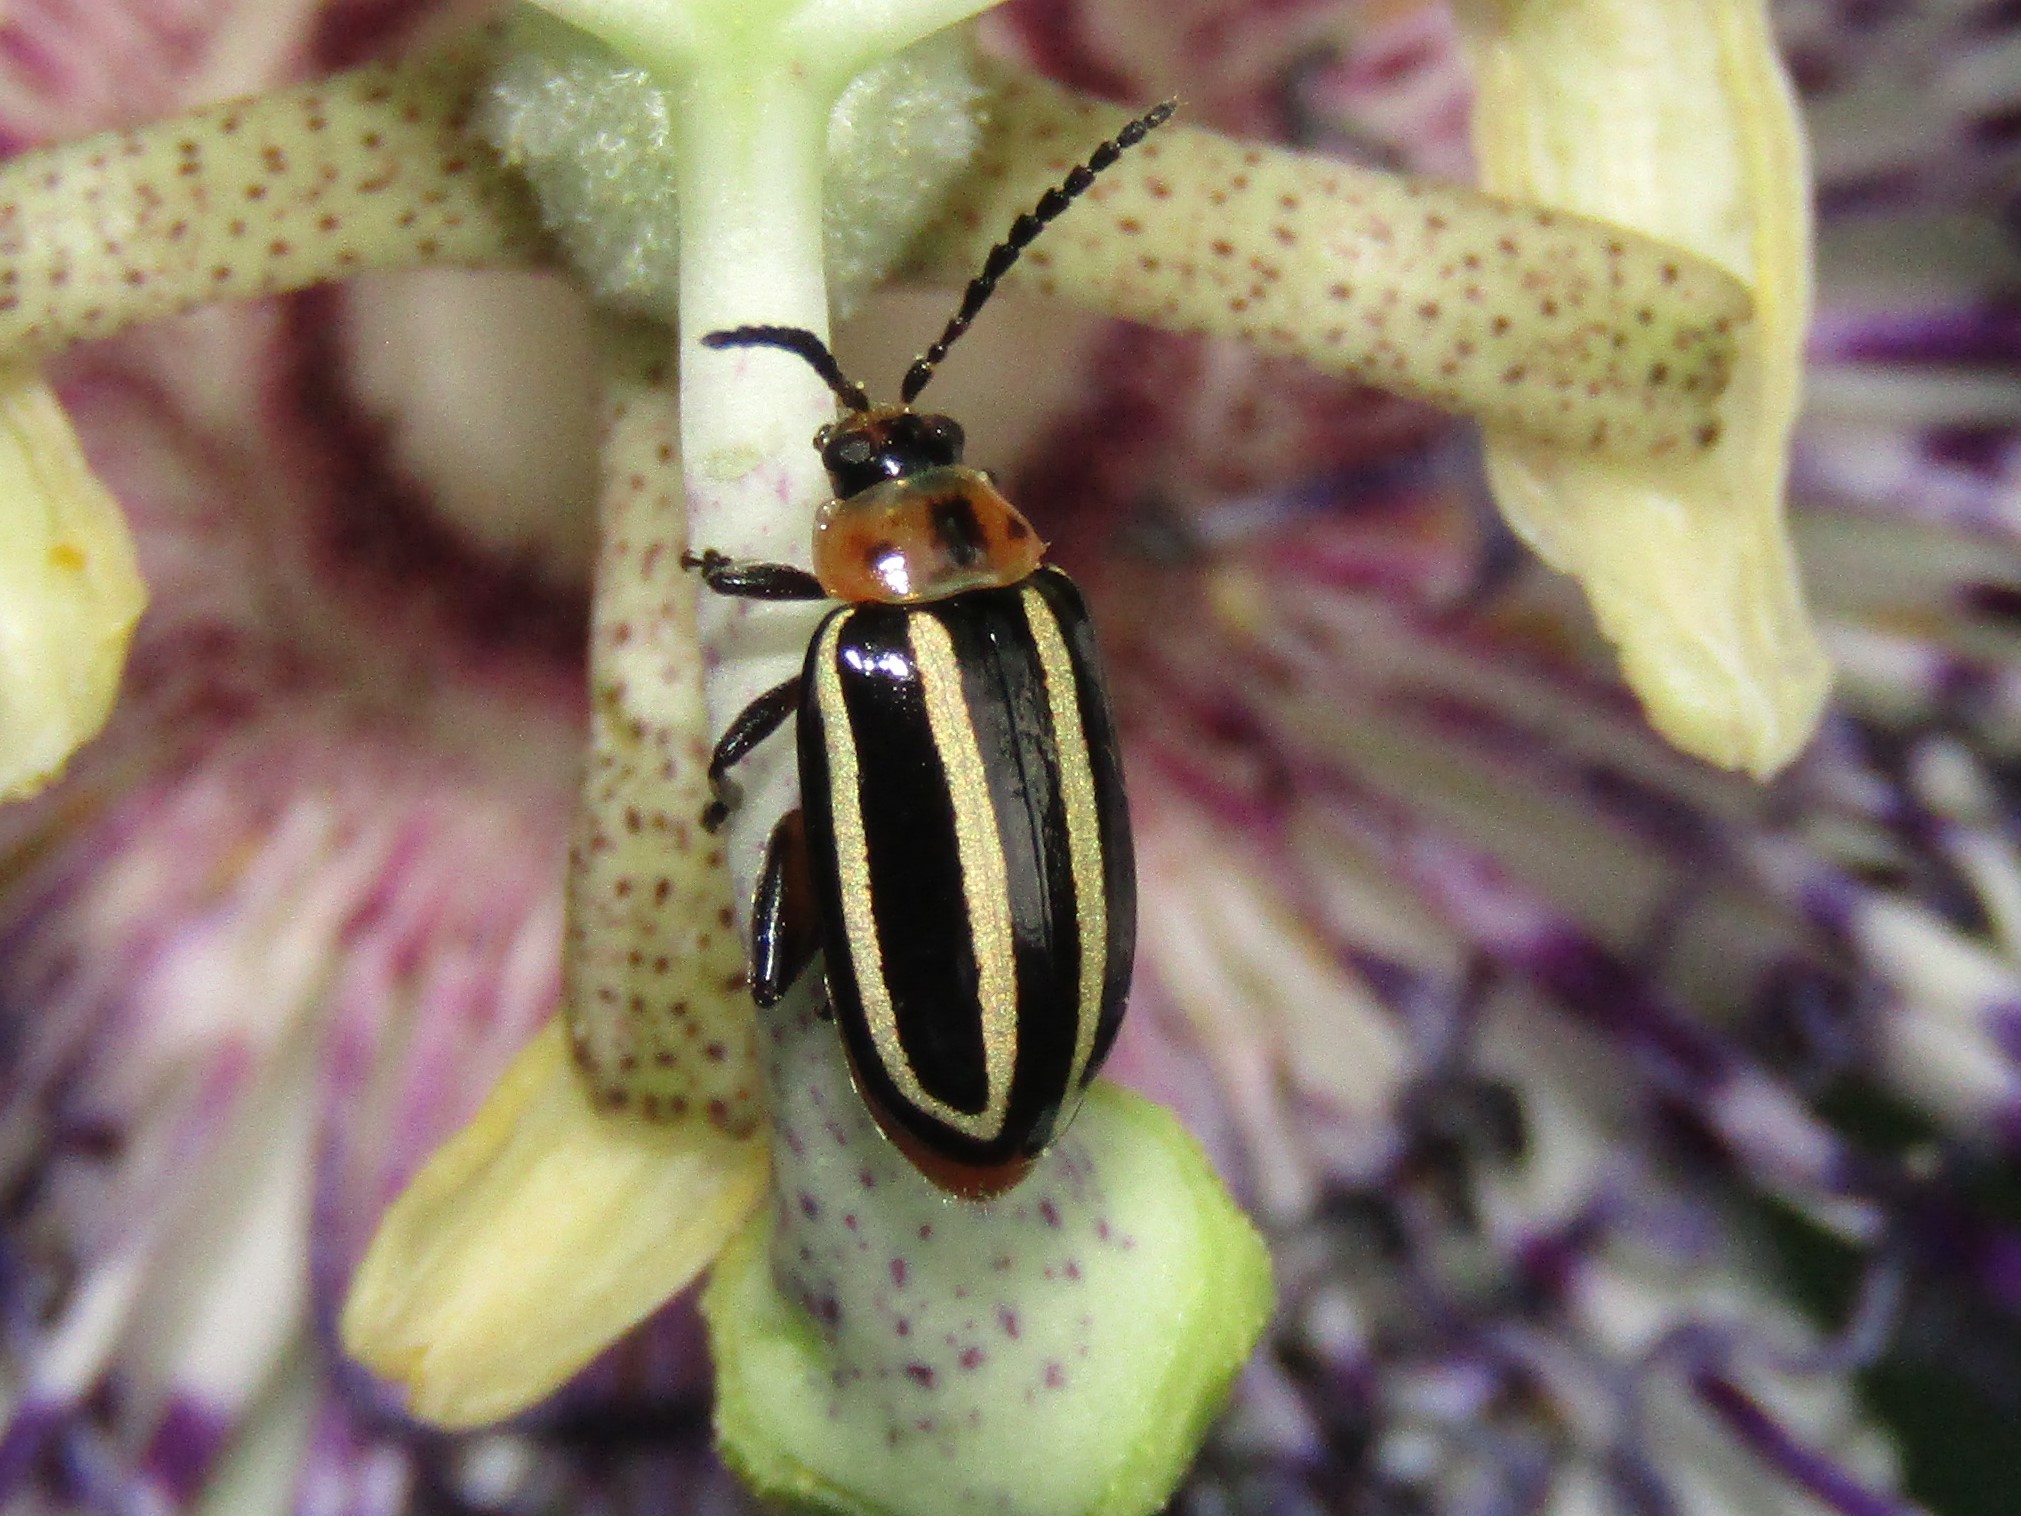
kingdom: Animalia
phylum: Arthropoda
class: Insecta
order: Coleoptera
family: Chrysomelidae
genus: Disonycha
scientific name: Disonycha glabrata
